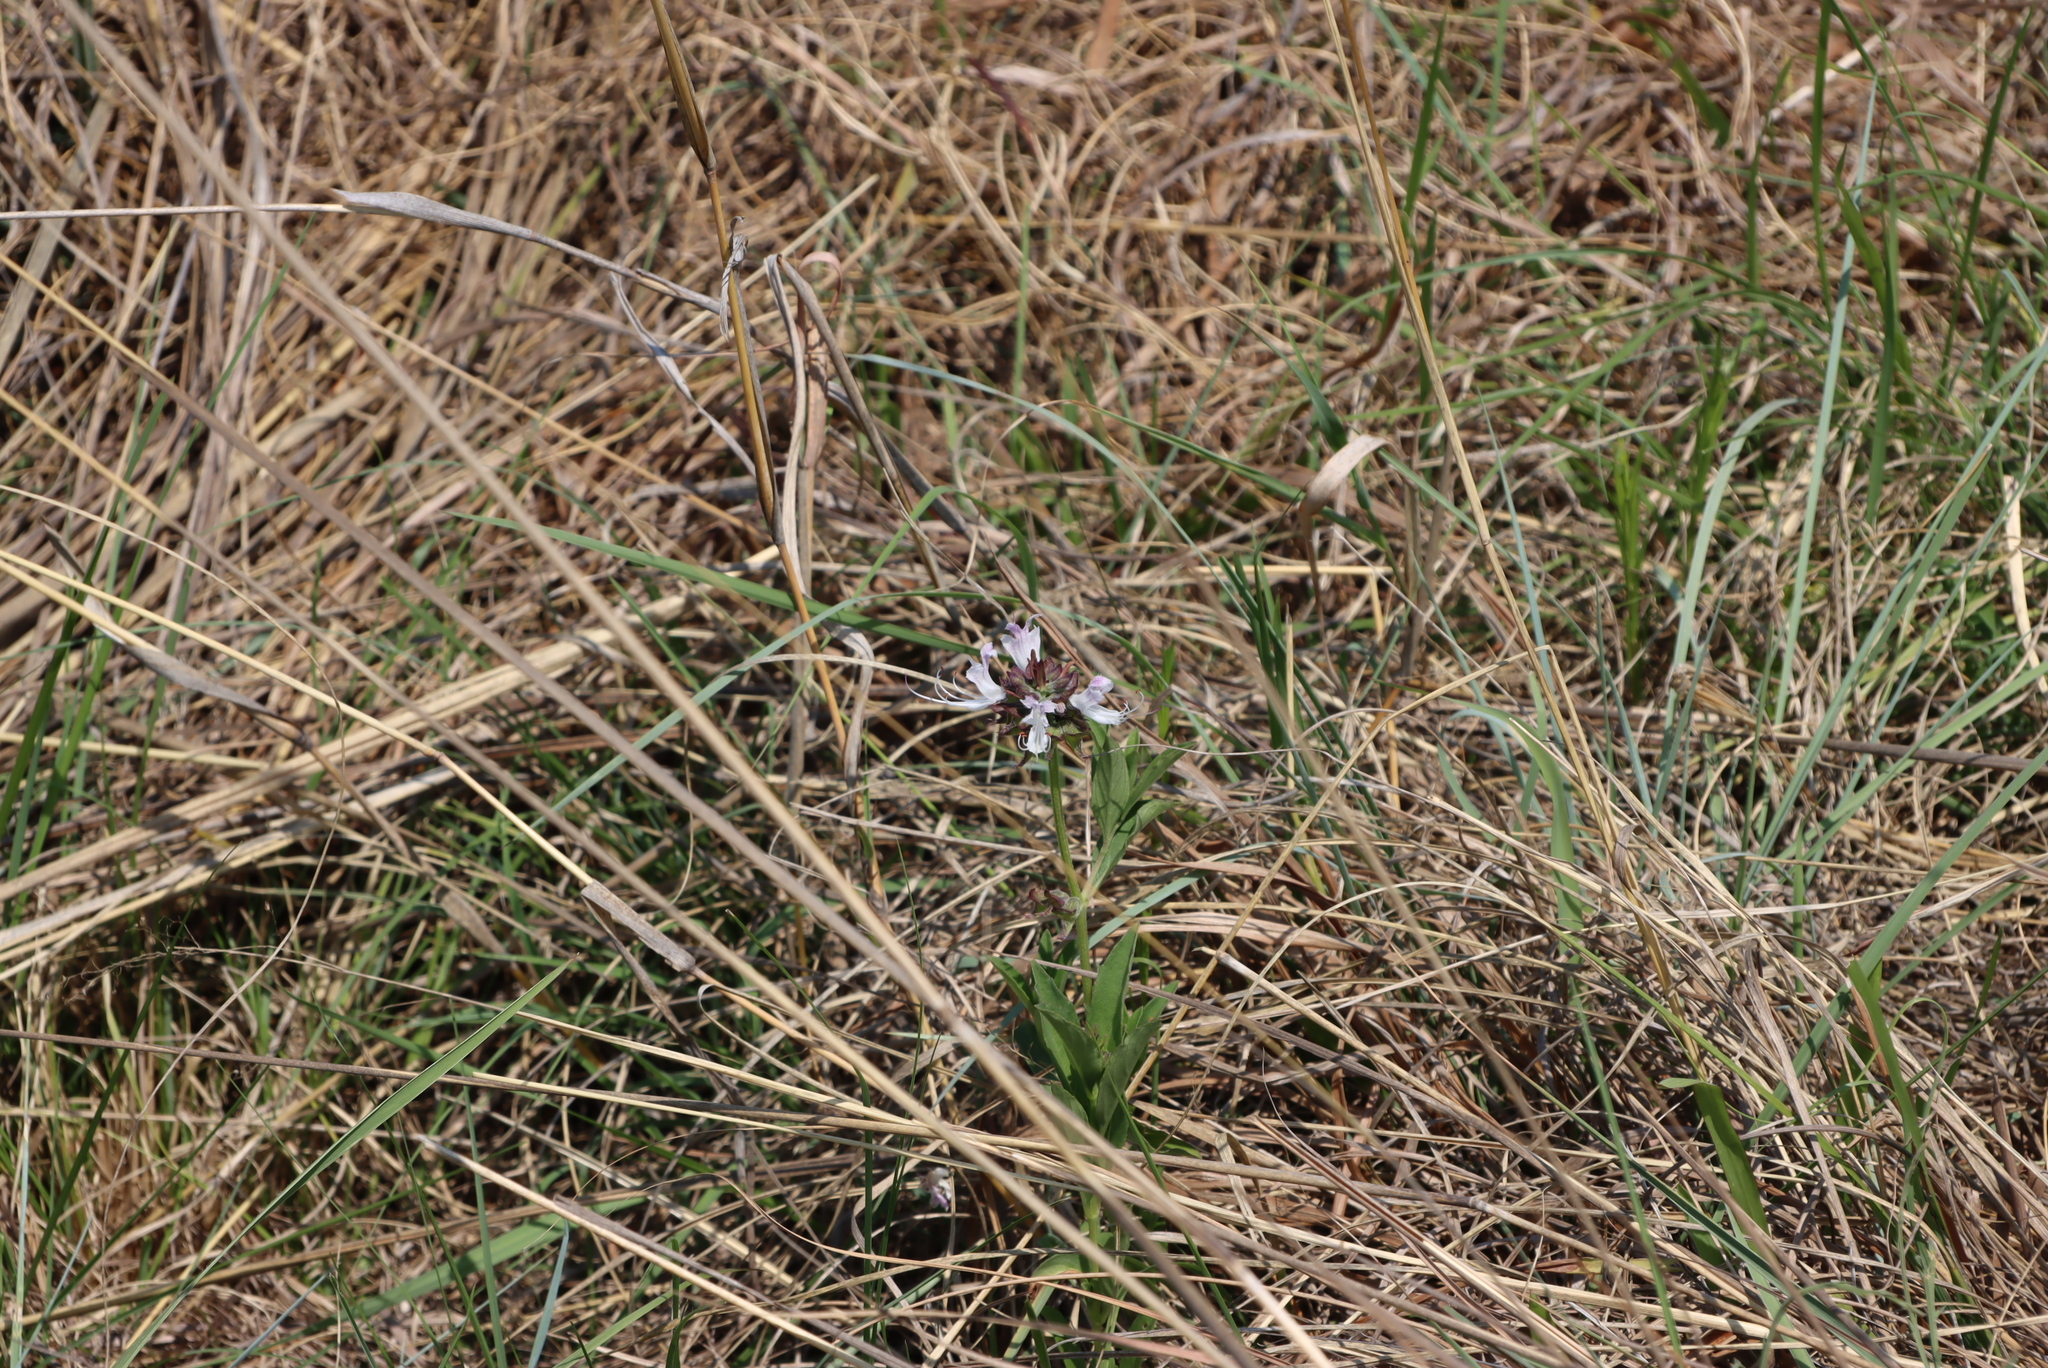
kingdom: Plantae
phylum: Tracheophyta
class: Magnoliopsida
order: Lamiales
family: Lamiaceae
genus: Ocimum
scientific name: Ocimum obovatum
